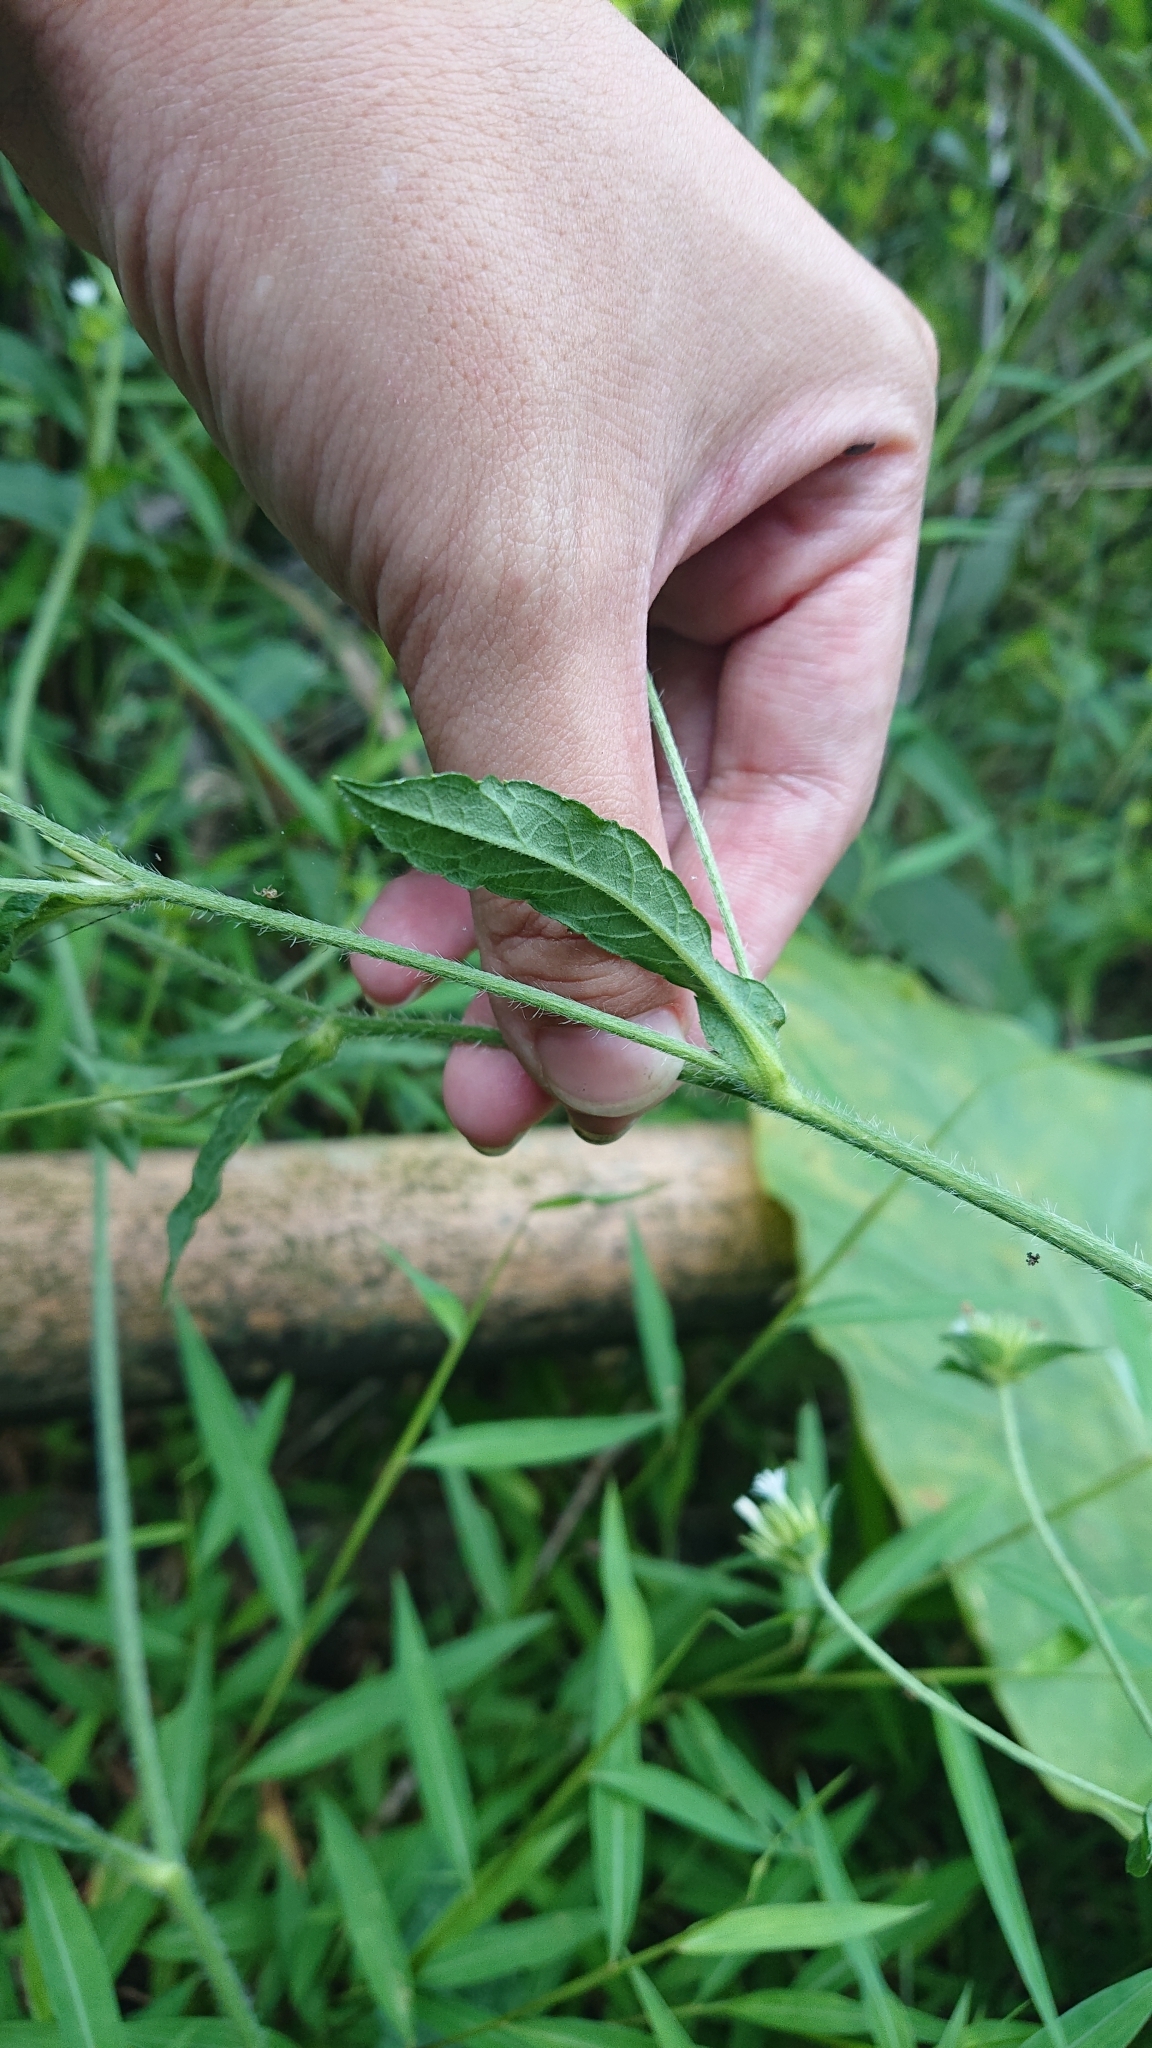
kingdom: Plantae
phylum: Tracheophyta
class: Magnoliopsida
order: Asterales
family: Asteraceae
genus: Elephantopus
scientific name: Elephantopus mollis
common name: Soft elephantsfoot
